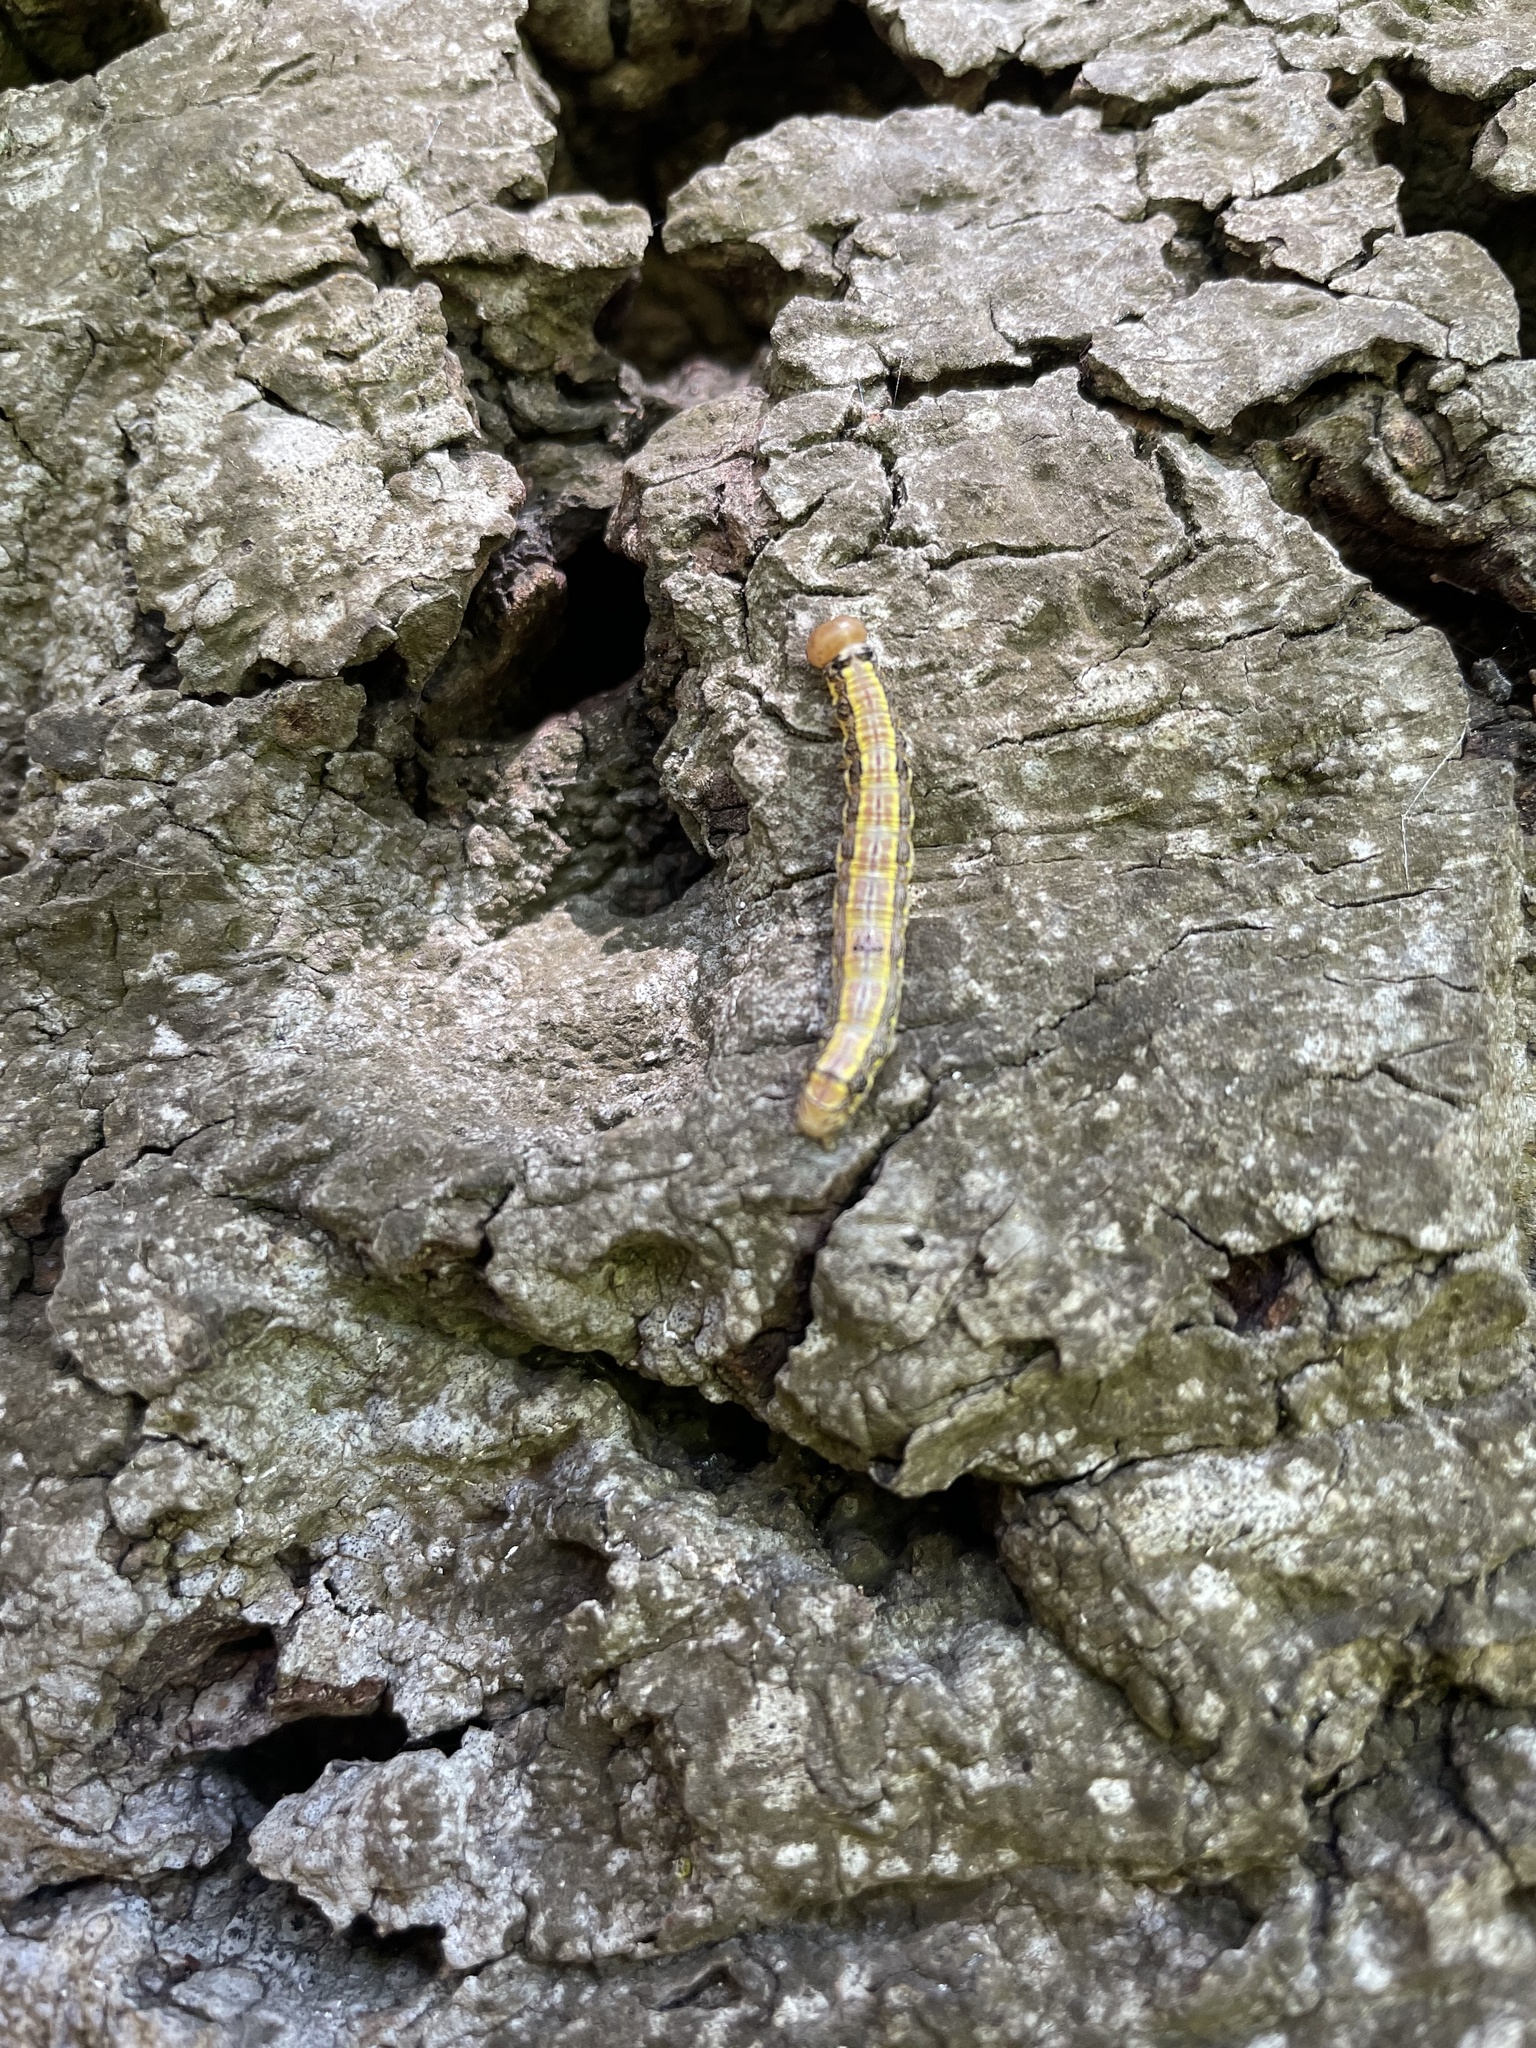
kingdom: Animalia
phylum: Arthropoda
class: Insecta
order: Lepidoptera
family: Notodontidae
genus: Phryganidia
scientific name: Phryganidia californica
